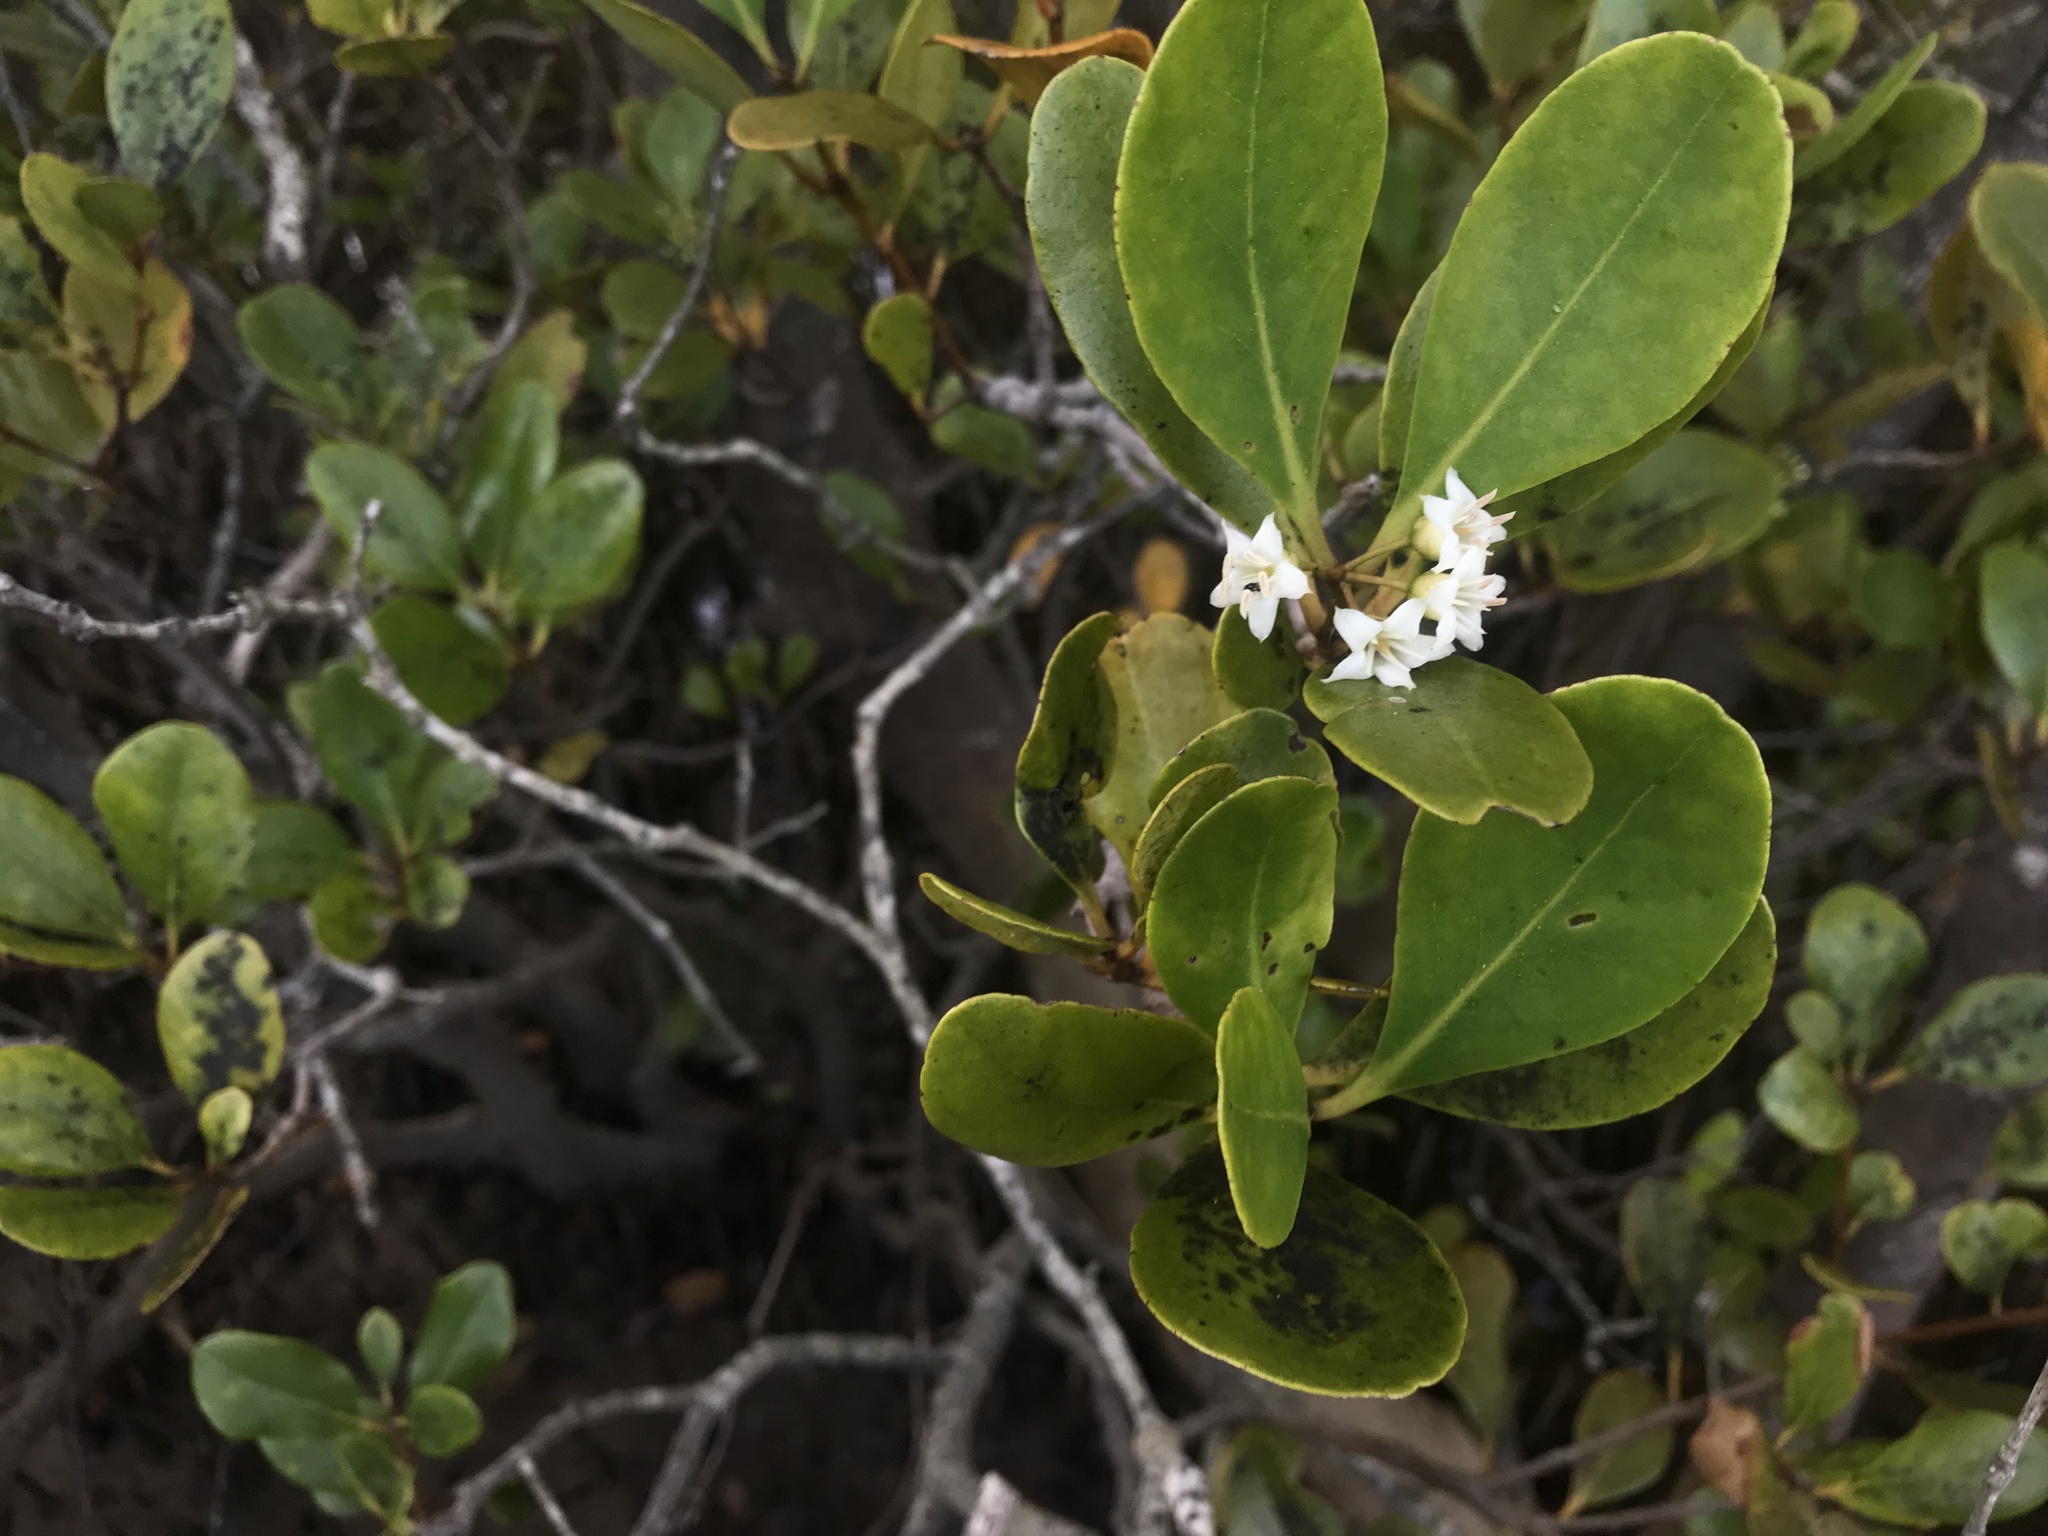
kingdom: Plantae
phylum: Tracheophyta
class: Magnoliopsida
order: Ericales
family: Primulaceae
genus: Aegiceras
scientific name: Aegiceras corniculatum
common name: River mangrove
